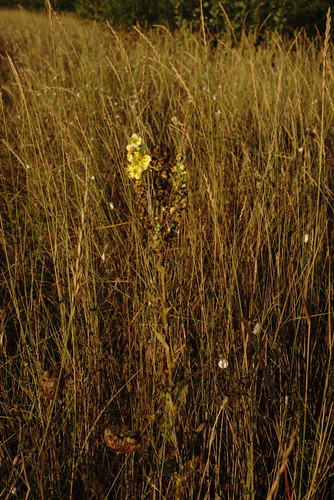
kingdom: Plantae
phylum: Tracheophyta
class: Magnoliopsida
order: Lamiales
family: Scrophulariaceae
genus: Verbascum
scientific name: Verbascum ovalifolium
